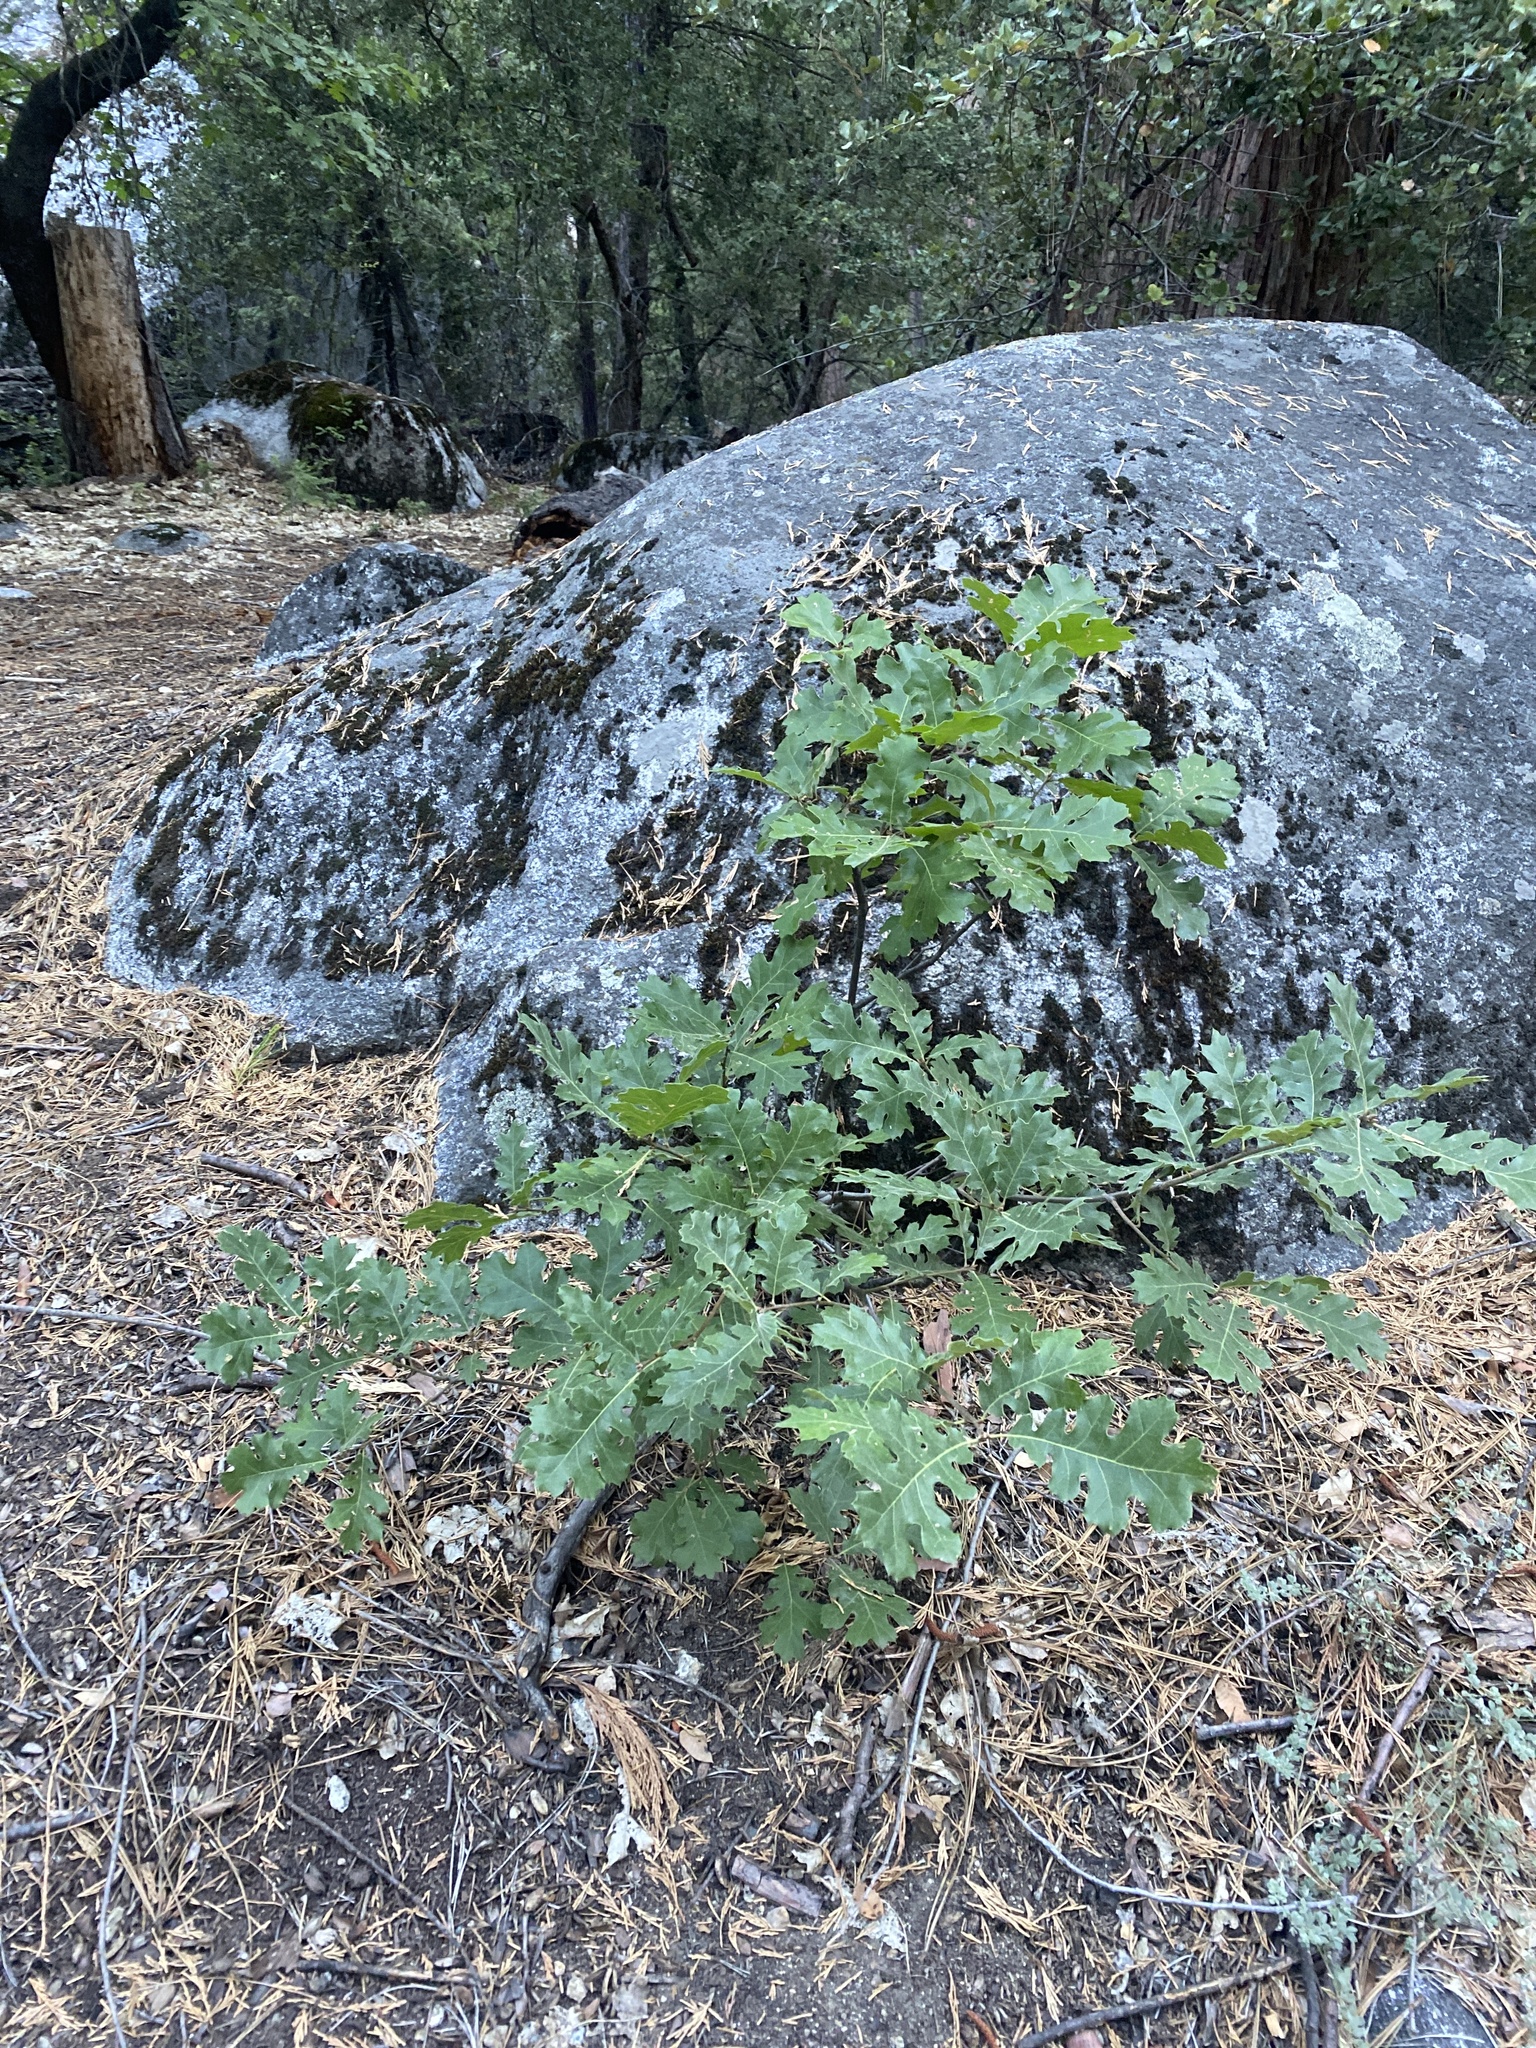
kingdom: Plantae
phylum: Tracheophyta
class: Magnoliopsida
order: Fagales
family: Fagaceae
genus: Quercus
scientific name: Quercus kelloggii
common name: California black oak
